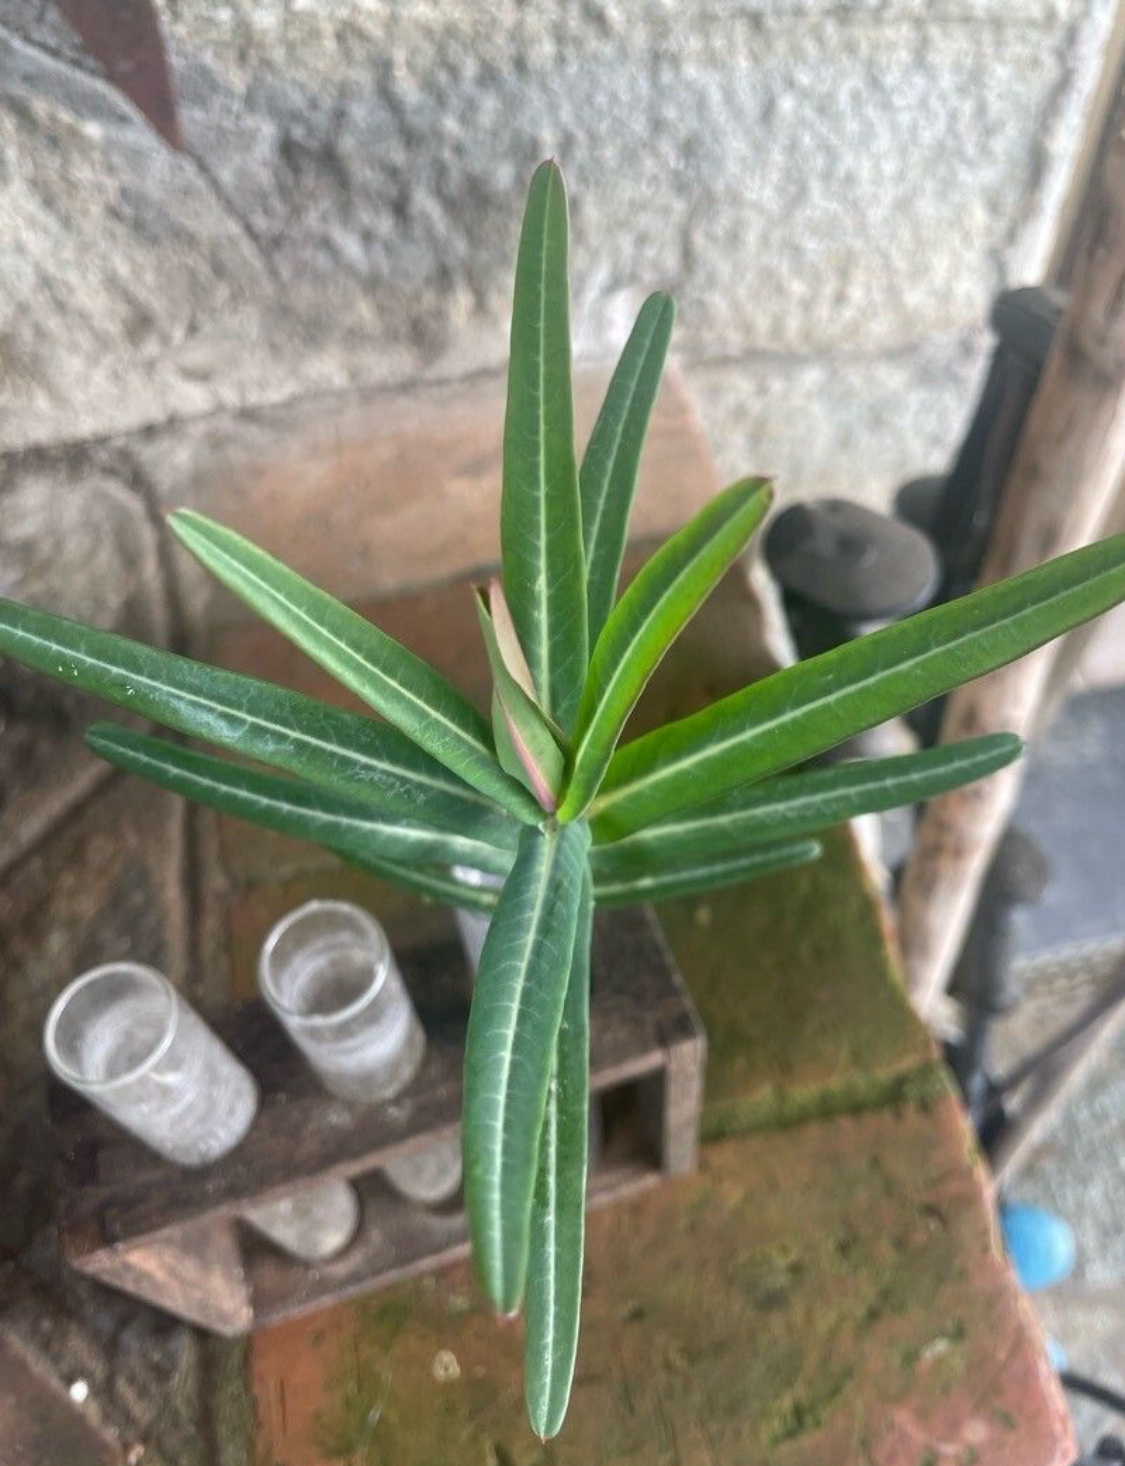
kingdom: Plantae
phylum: Tracheophyta
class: Magnoliopsida
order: Malpighiales
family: Euphorbiaceae
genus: Euphorbia
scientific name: Euphorbia lathyris
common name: Caper spurge
